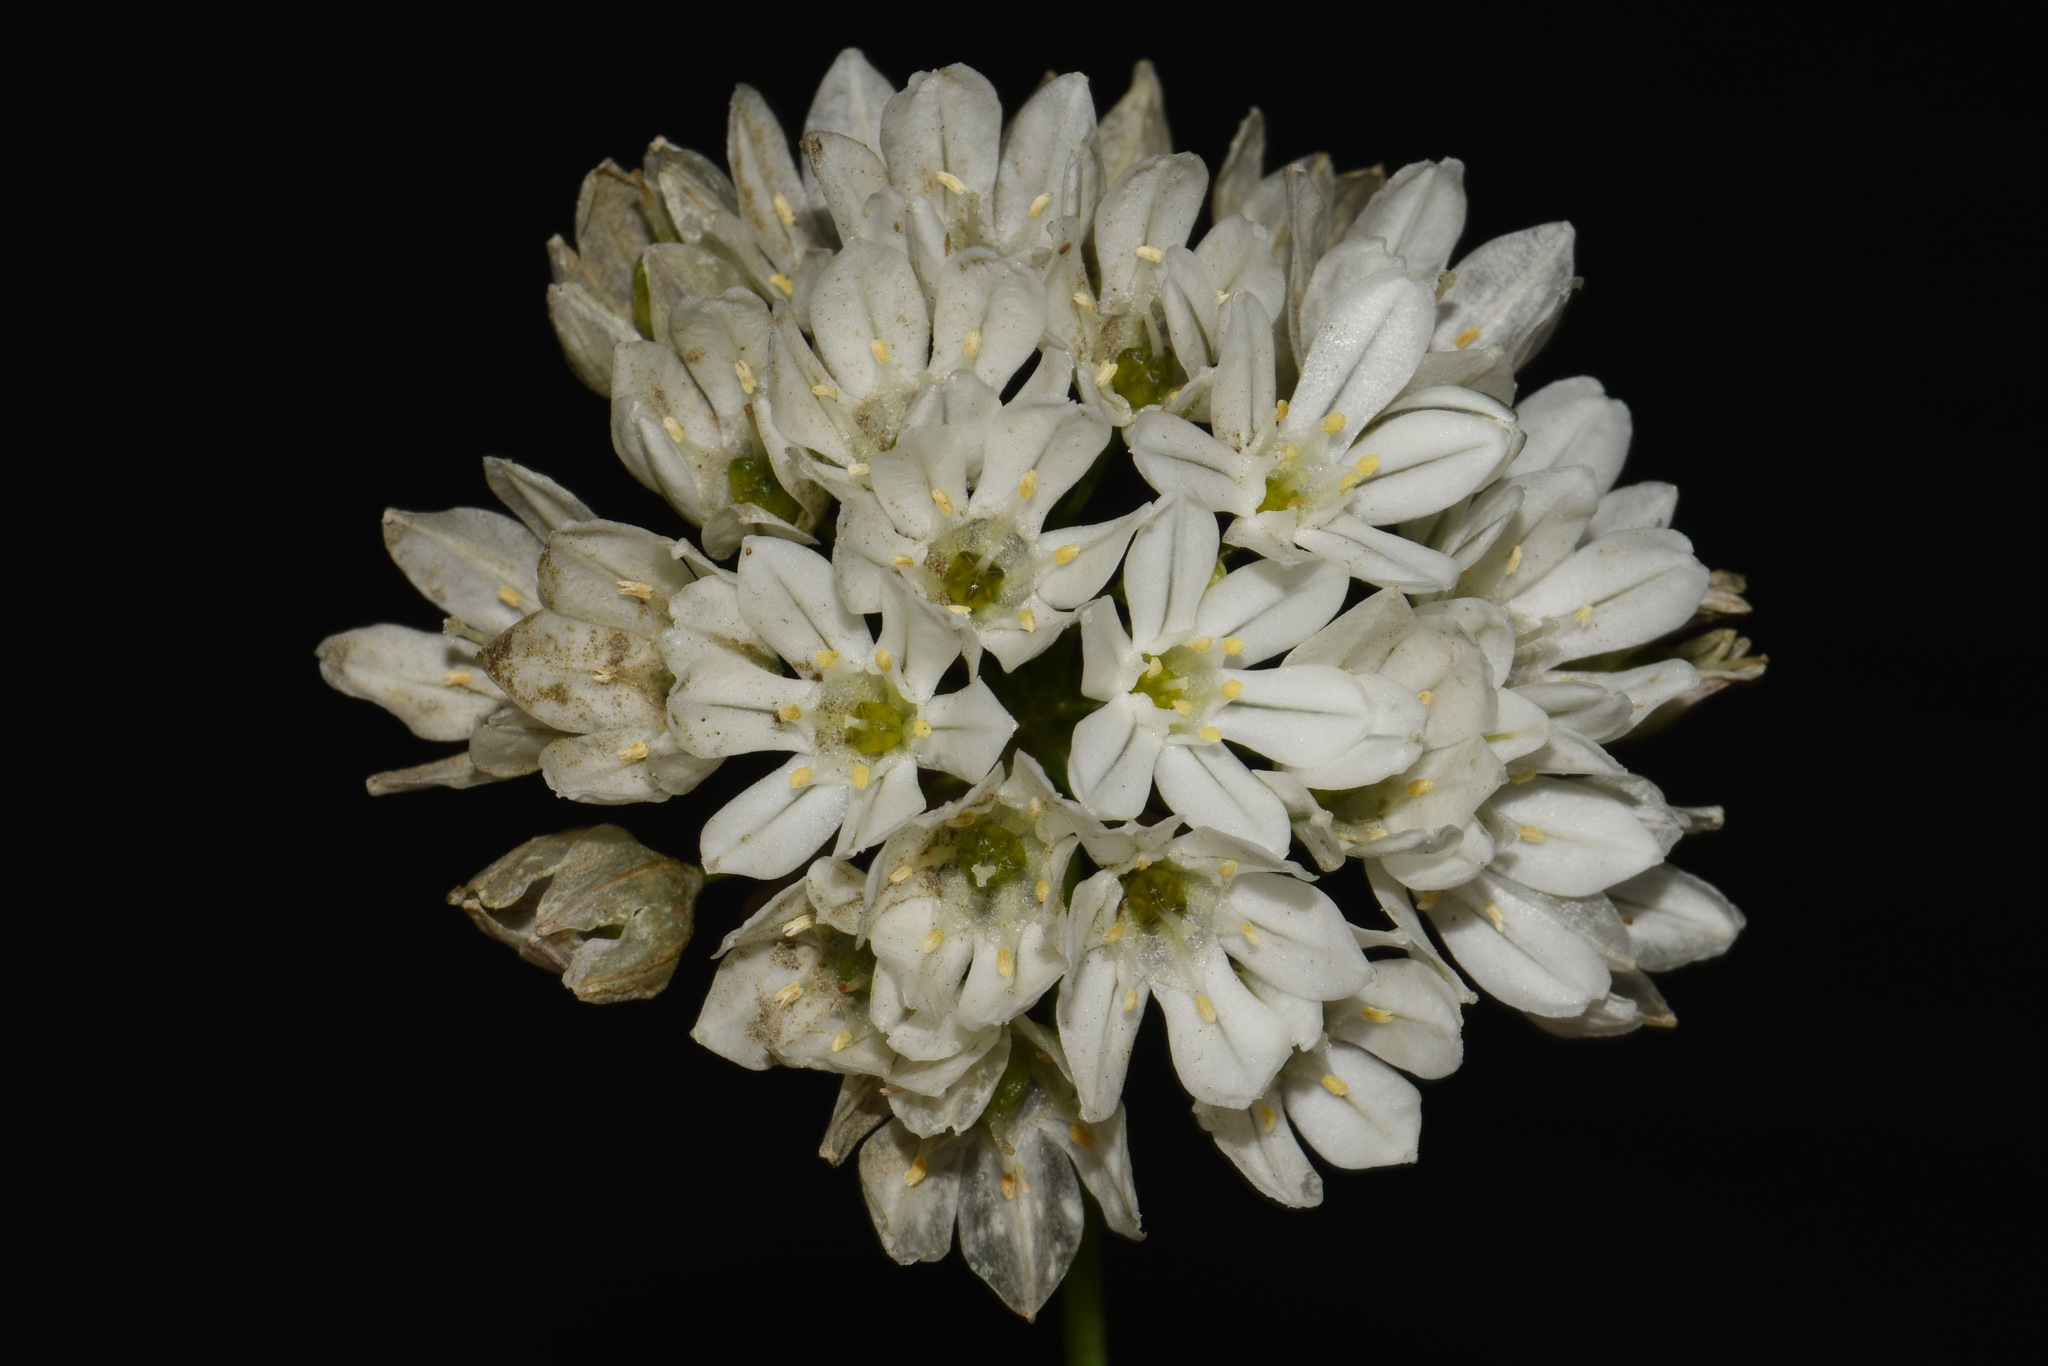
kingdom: Plantae
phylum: Tracheophyta
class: Liliopsida
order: Asparagales
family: Asparagaceae
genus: Triteleia
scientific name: Triteleia hyacinthina
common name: White brodiaea
